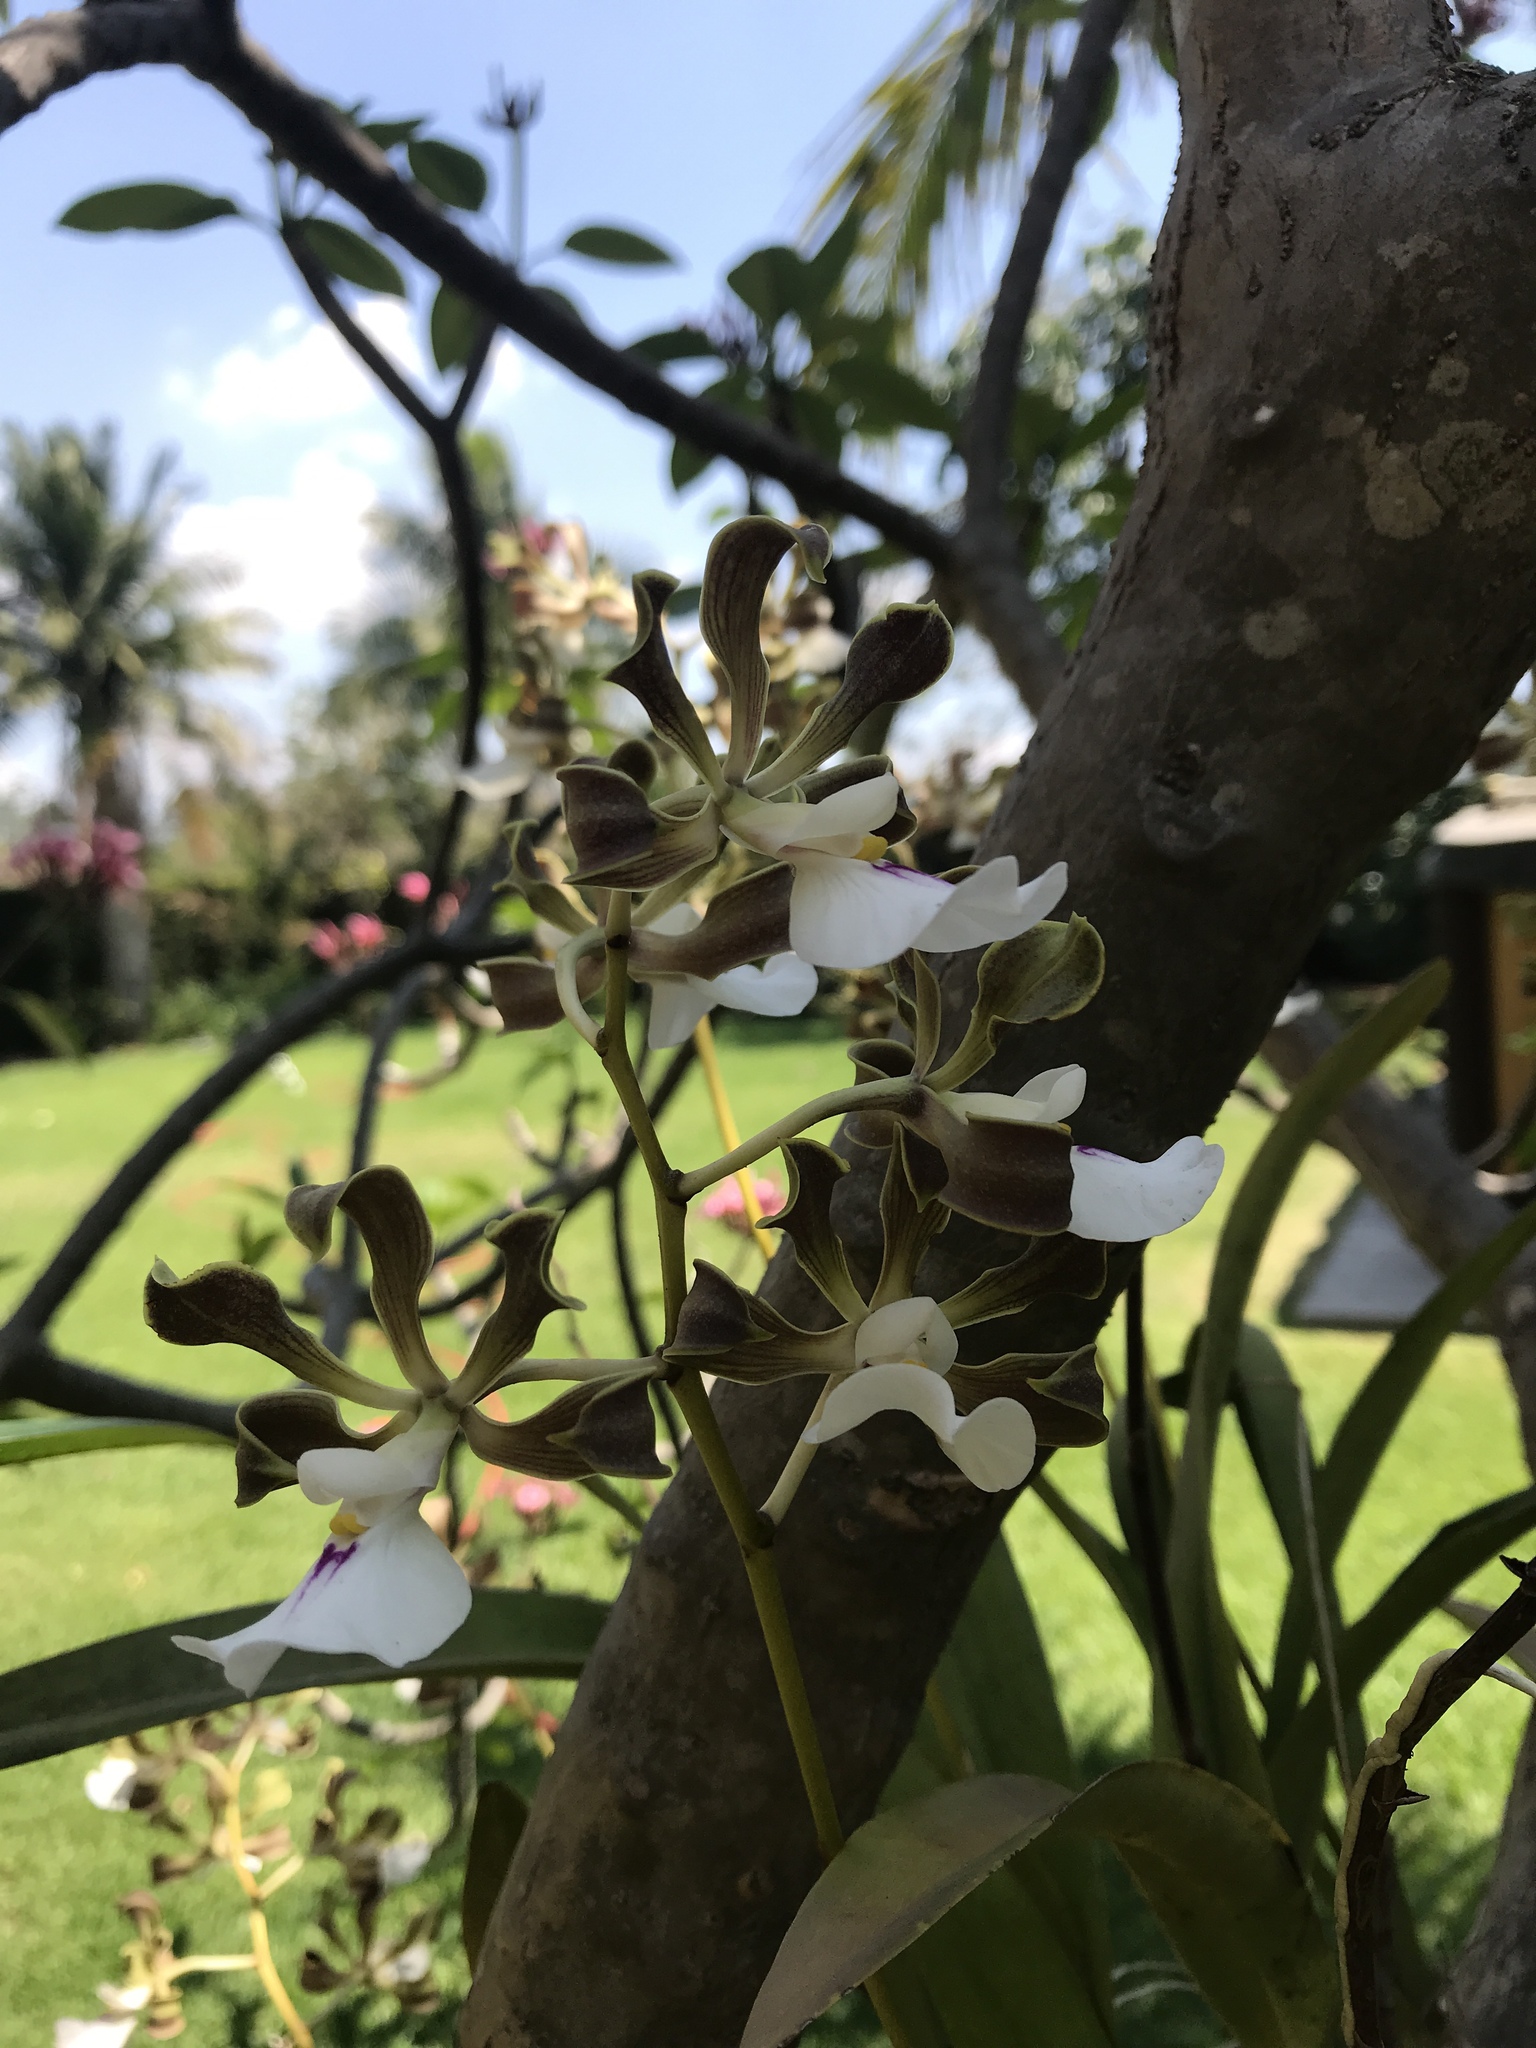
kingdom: Plantae
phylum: Tracheophyta
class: Liliopsida
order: Asparagales
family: Orchidaceae
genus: Encyclia
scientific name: Encyclia cordigera
